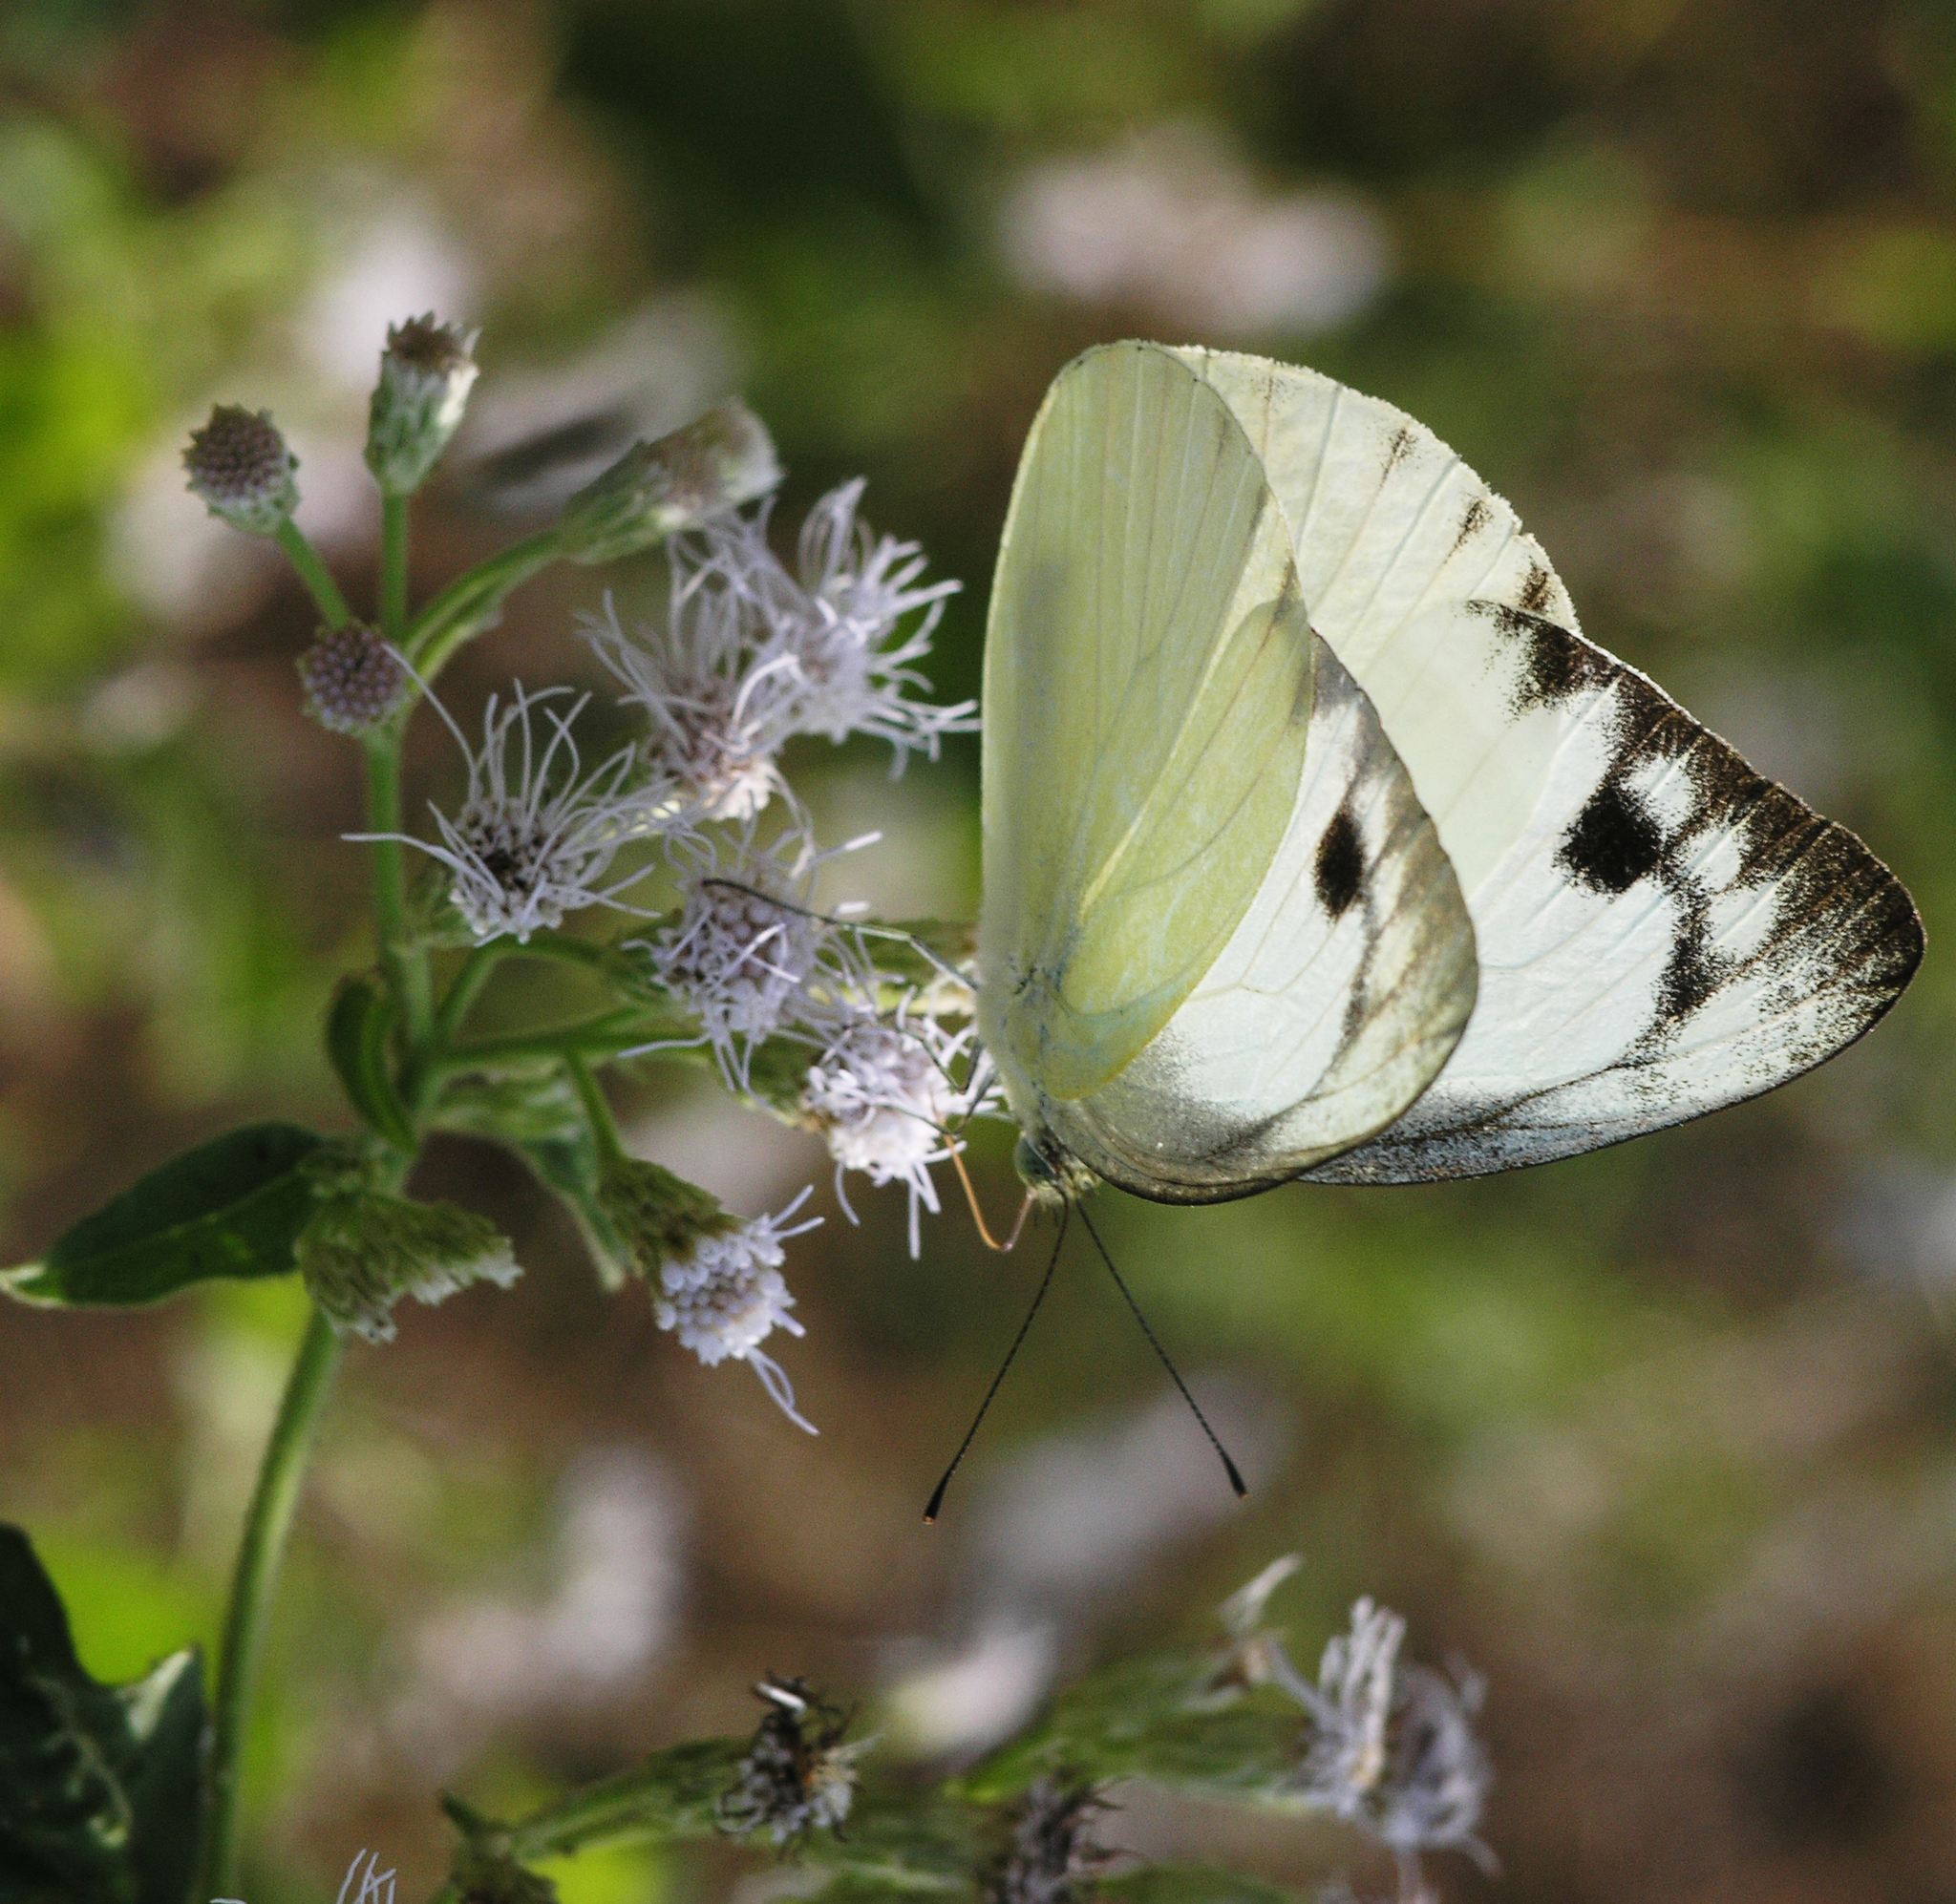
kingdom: Animalia
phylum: Arthropoda
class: Insecta
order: Lepidoptera
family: Pieridae
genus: Appias
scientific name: Appias paulina
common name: Ceylon lesser albatross
